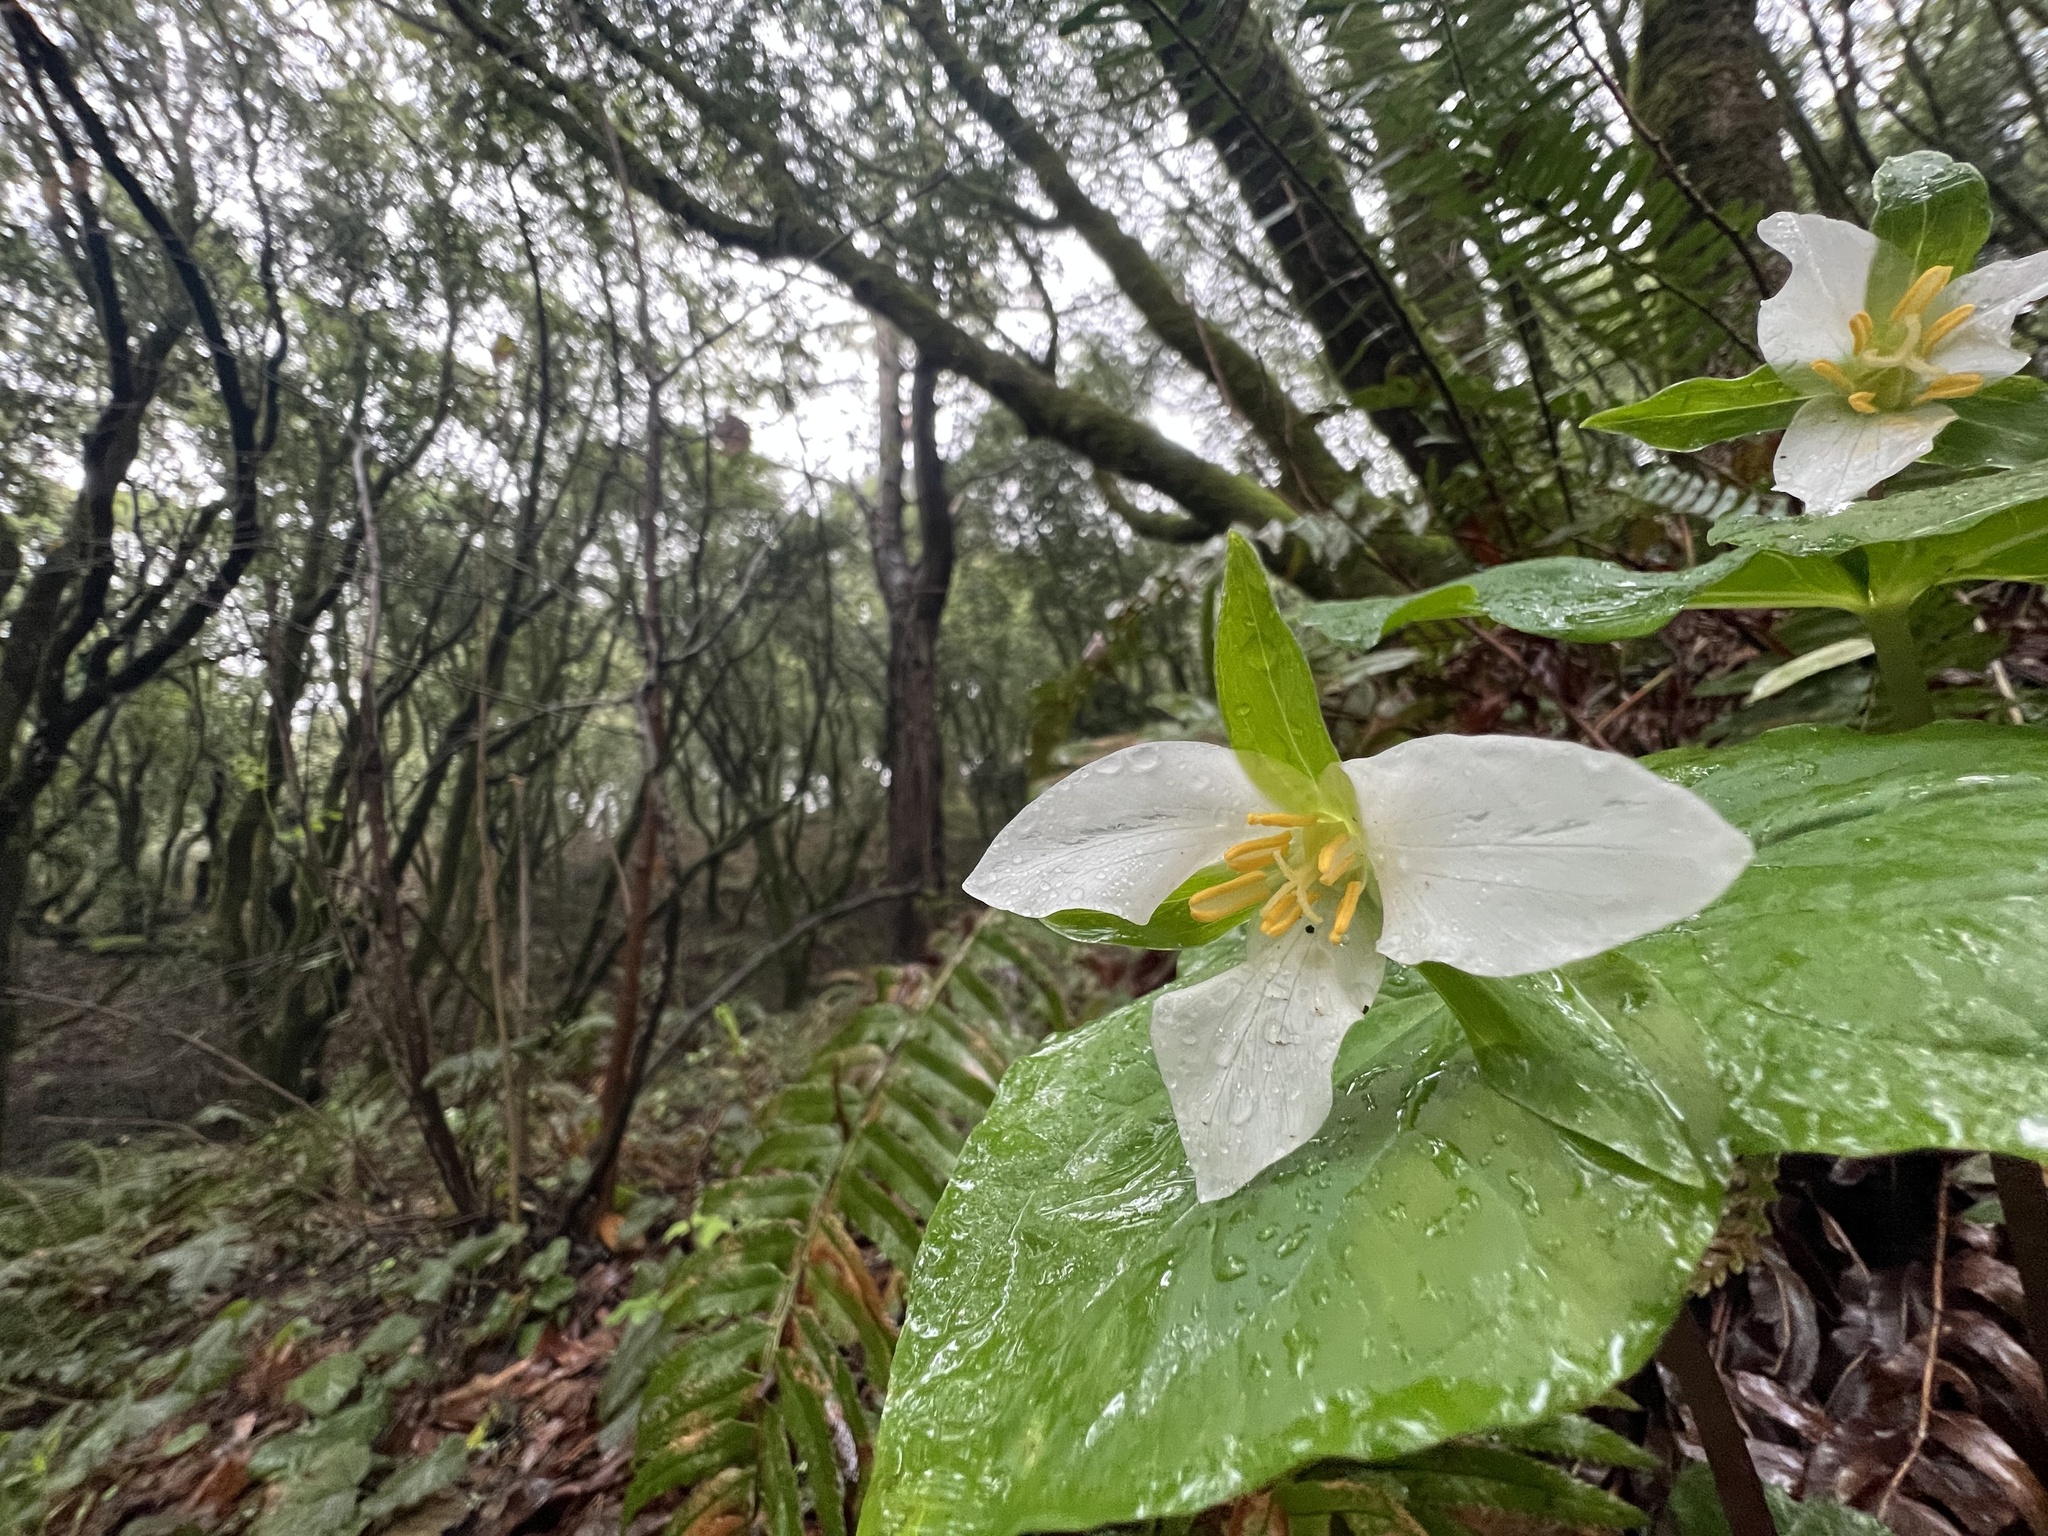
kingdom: Plantae
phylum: Tracheophyta
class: Liliopsida
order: Liliales
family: Melanthiaceae
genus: Trillium
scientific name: Trillium ovatum
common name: Pacific trillium
